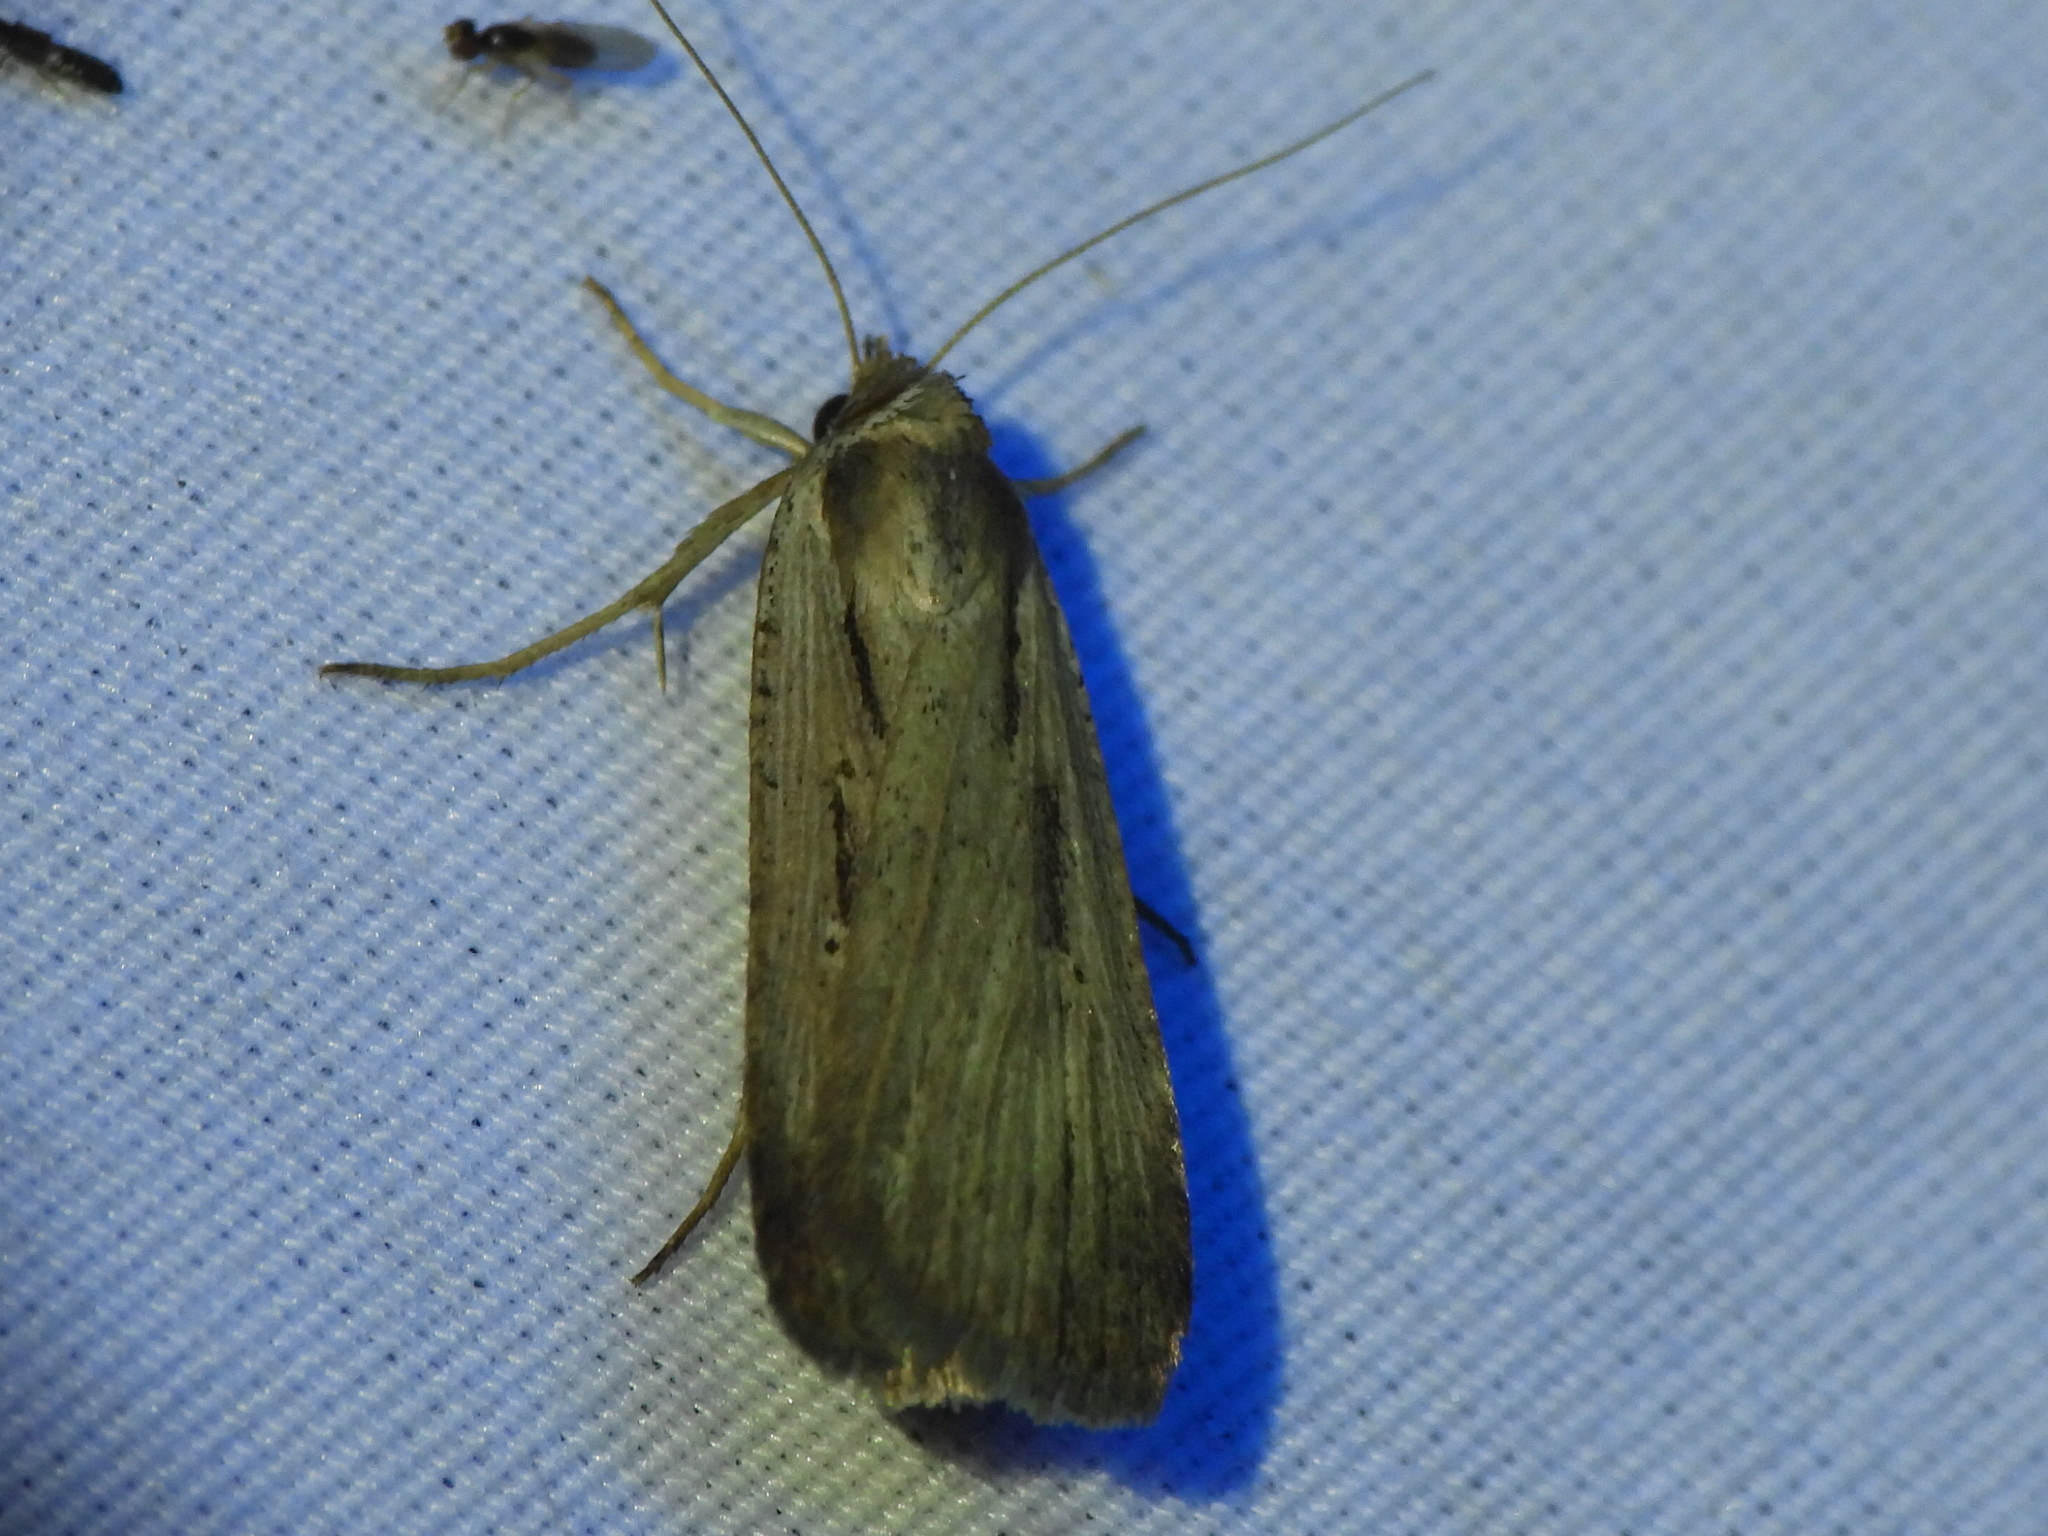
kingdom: Animalia
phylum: Arthropoda
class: Insecta
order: Lepidoptera
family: Noctuidae
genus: Tathorhynchus
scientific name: Tathorhynchus exsiccata
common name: Levant blackneck moth
